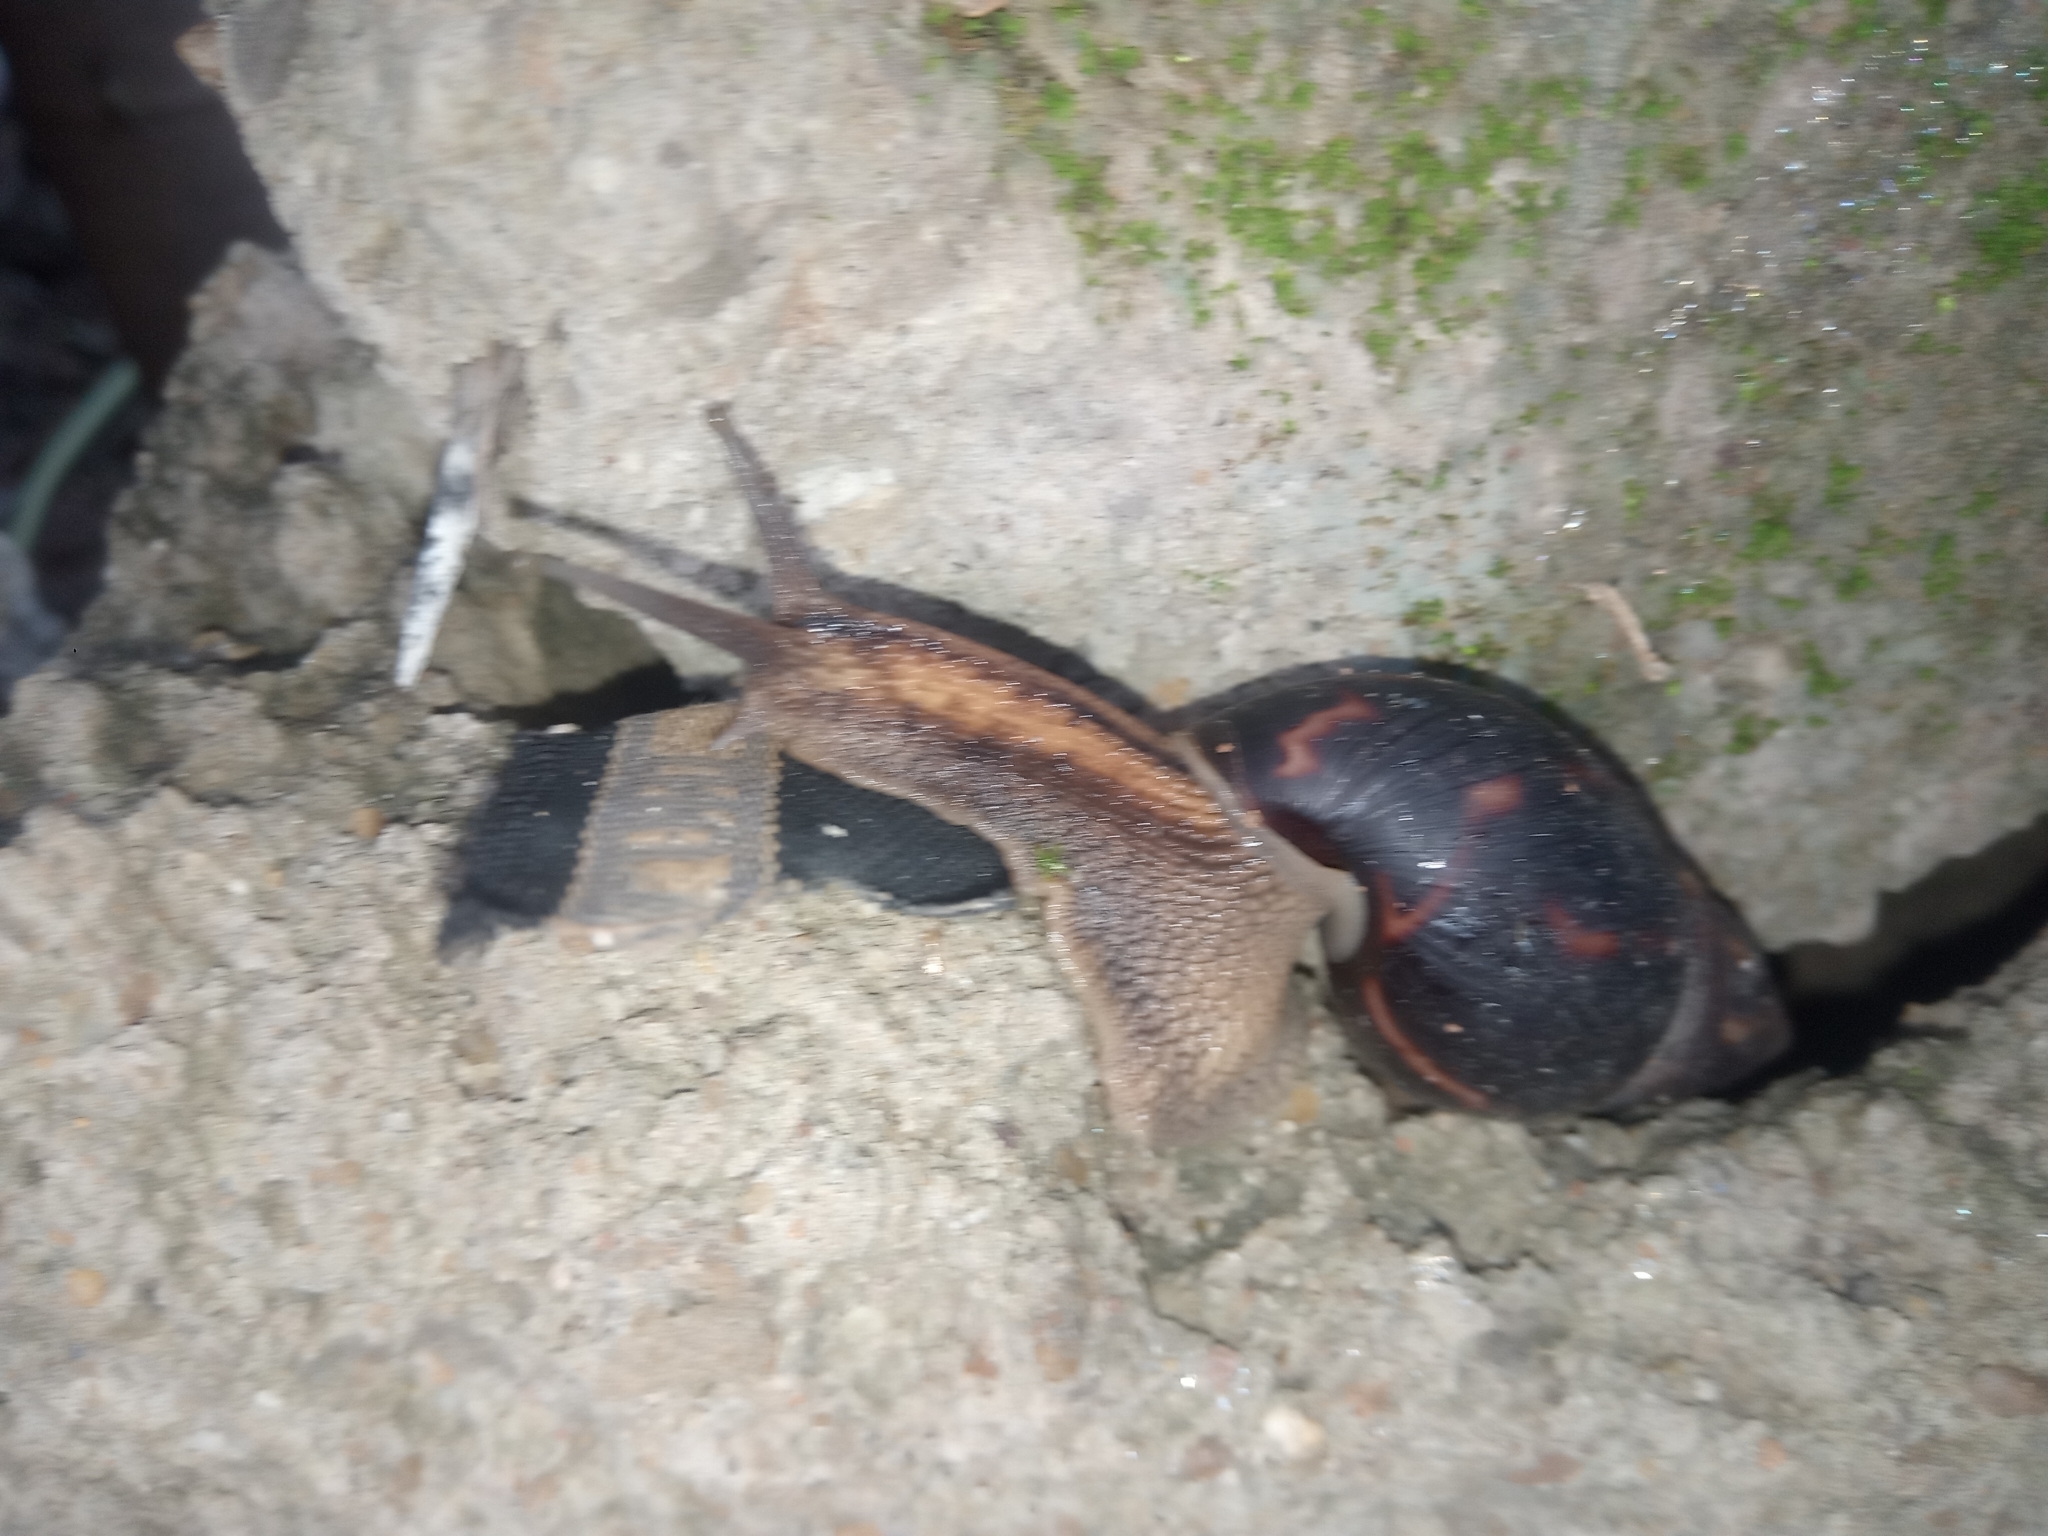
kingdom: Animalia
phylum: Mollusca
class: Gastropoda
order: Stylommatophora
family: Achatinidae
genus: Limicolaria
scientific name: Limicolaria aurora
